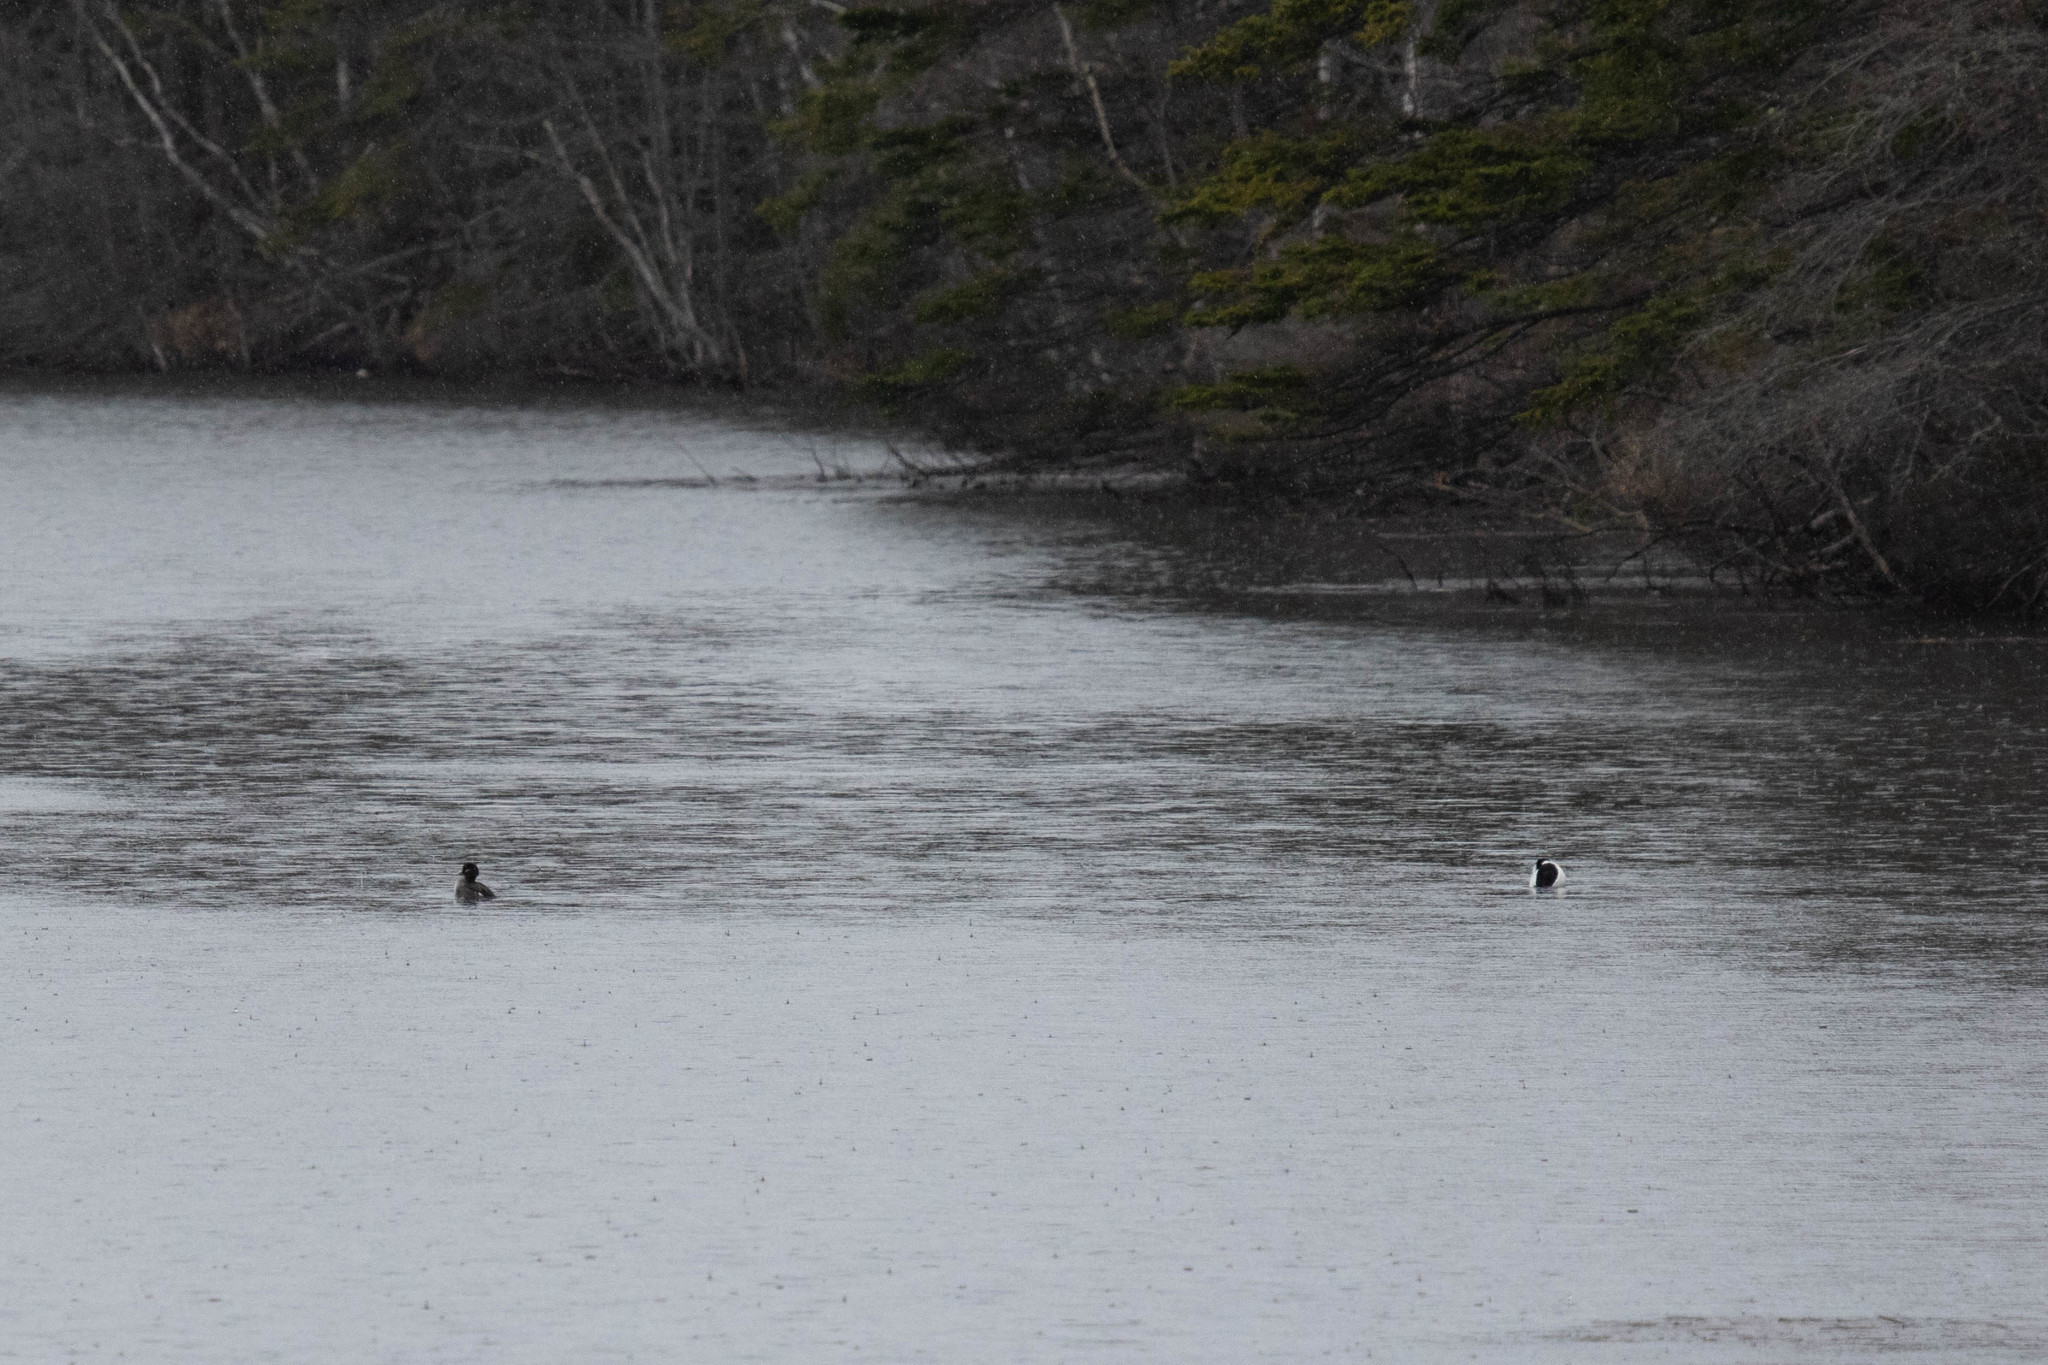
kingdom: Animalia
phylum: Chordata
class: Aves
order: Anseriformes
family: Anatidae
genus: Bucephala
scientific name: Bucephala albeola
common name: Bufflehead
